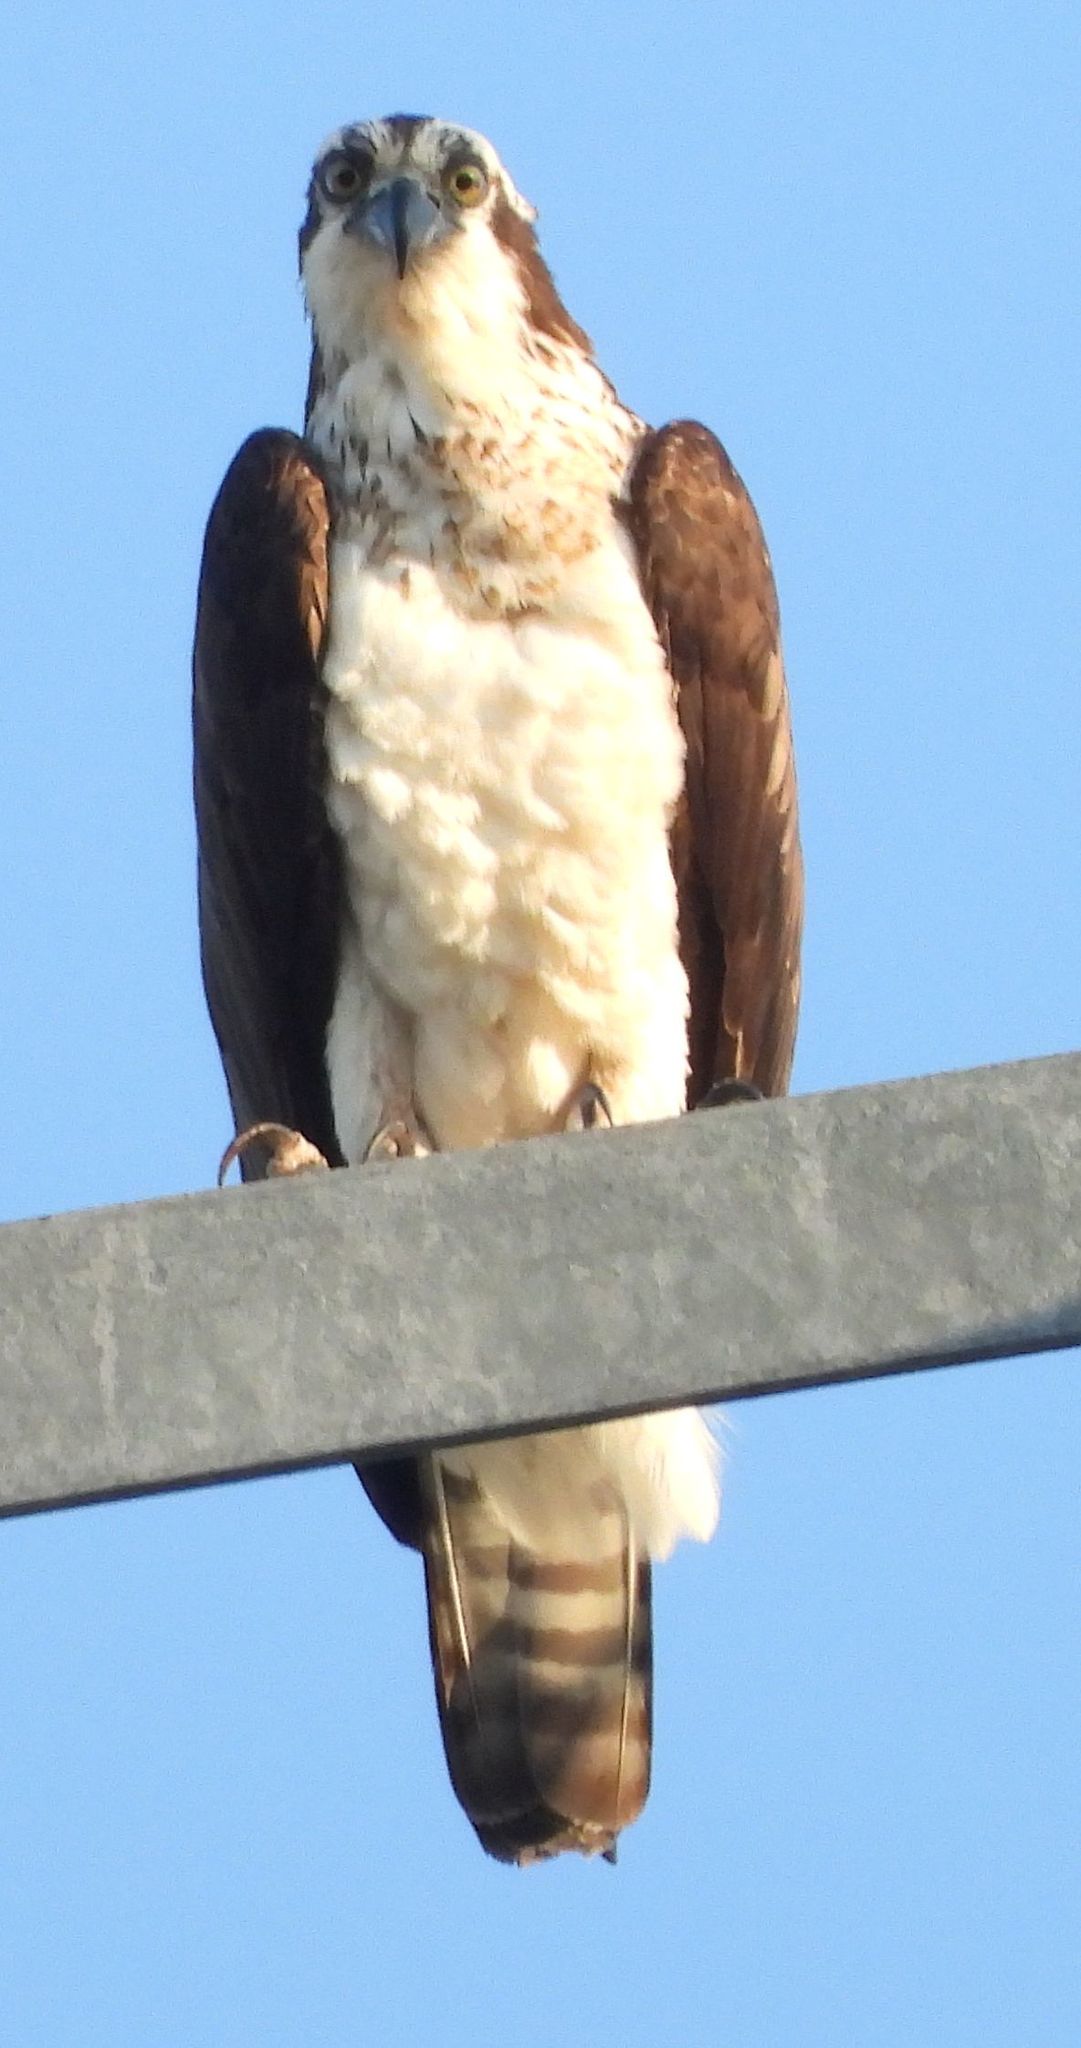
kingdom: Animalia
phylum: Chordata
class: Aves
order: Accipitriformes
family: Pandionidae
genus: Pandion
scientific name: Pandion haliaetus
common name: Osprey
